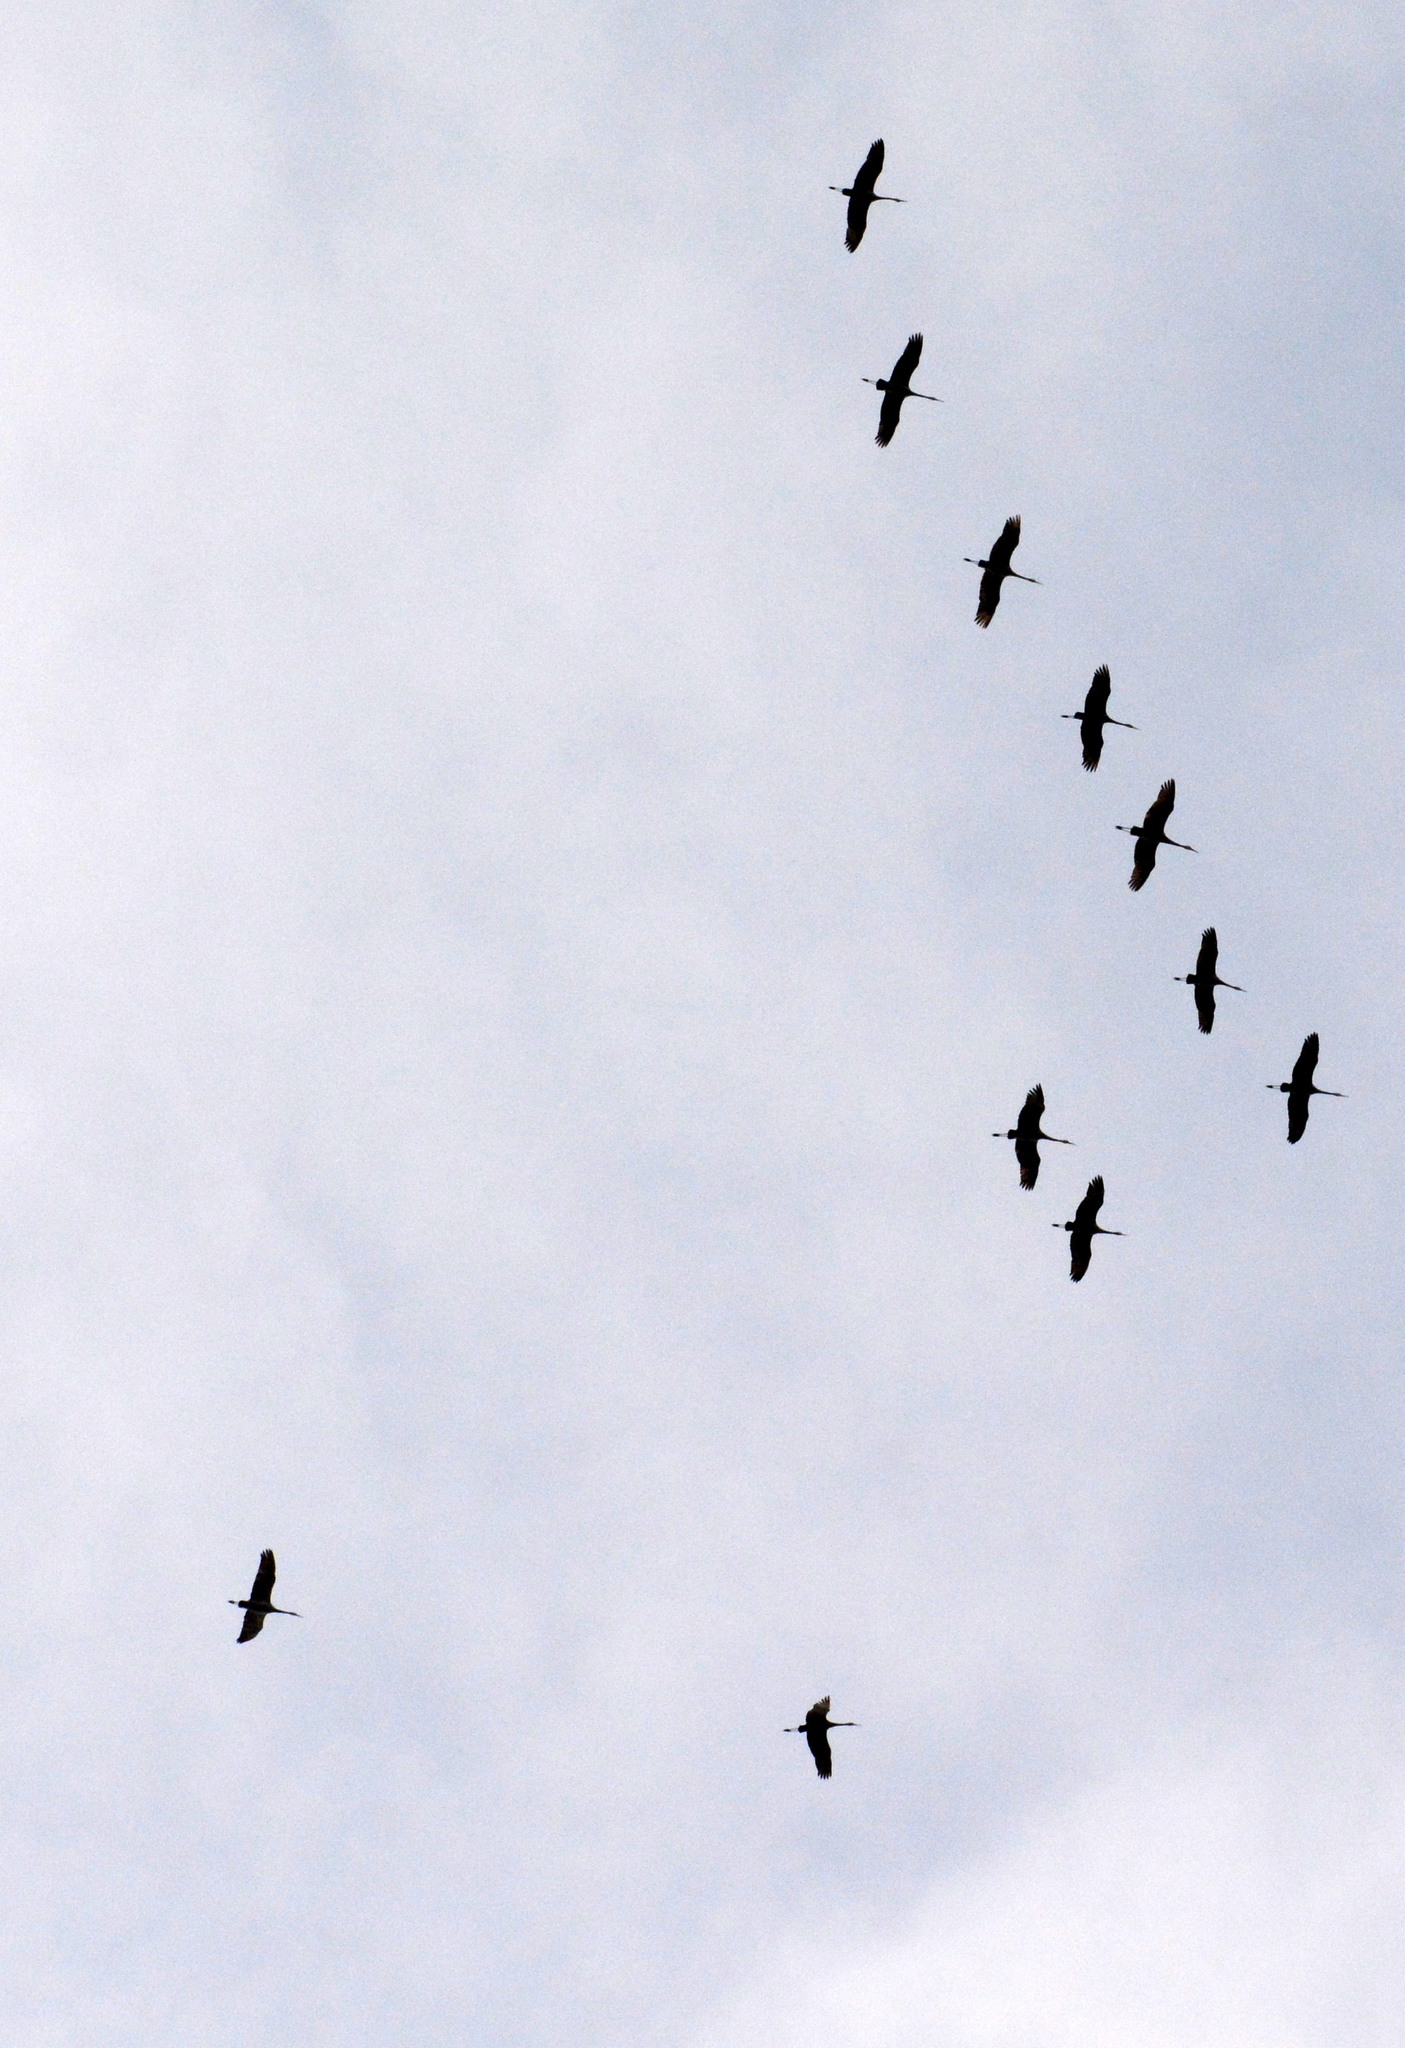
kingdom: Animalia
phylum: Chordata
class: Aves
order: Gruiformes
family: Gruidae
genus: Grus
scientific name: Grus canadensis
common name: Sandhill crane
